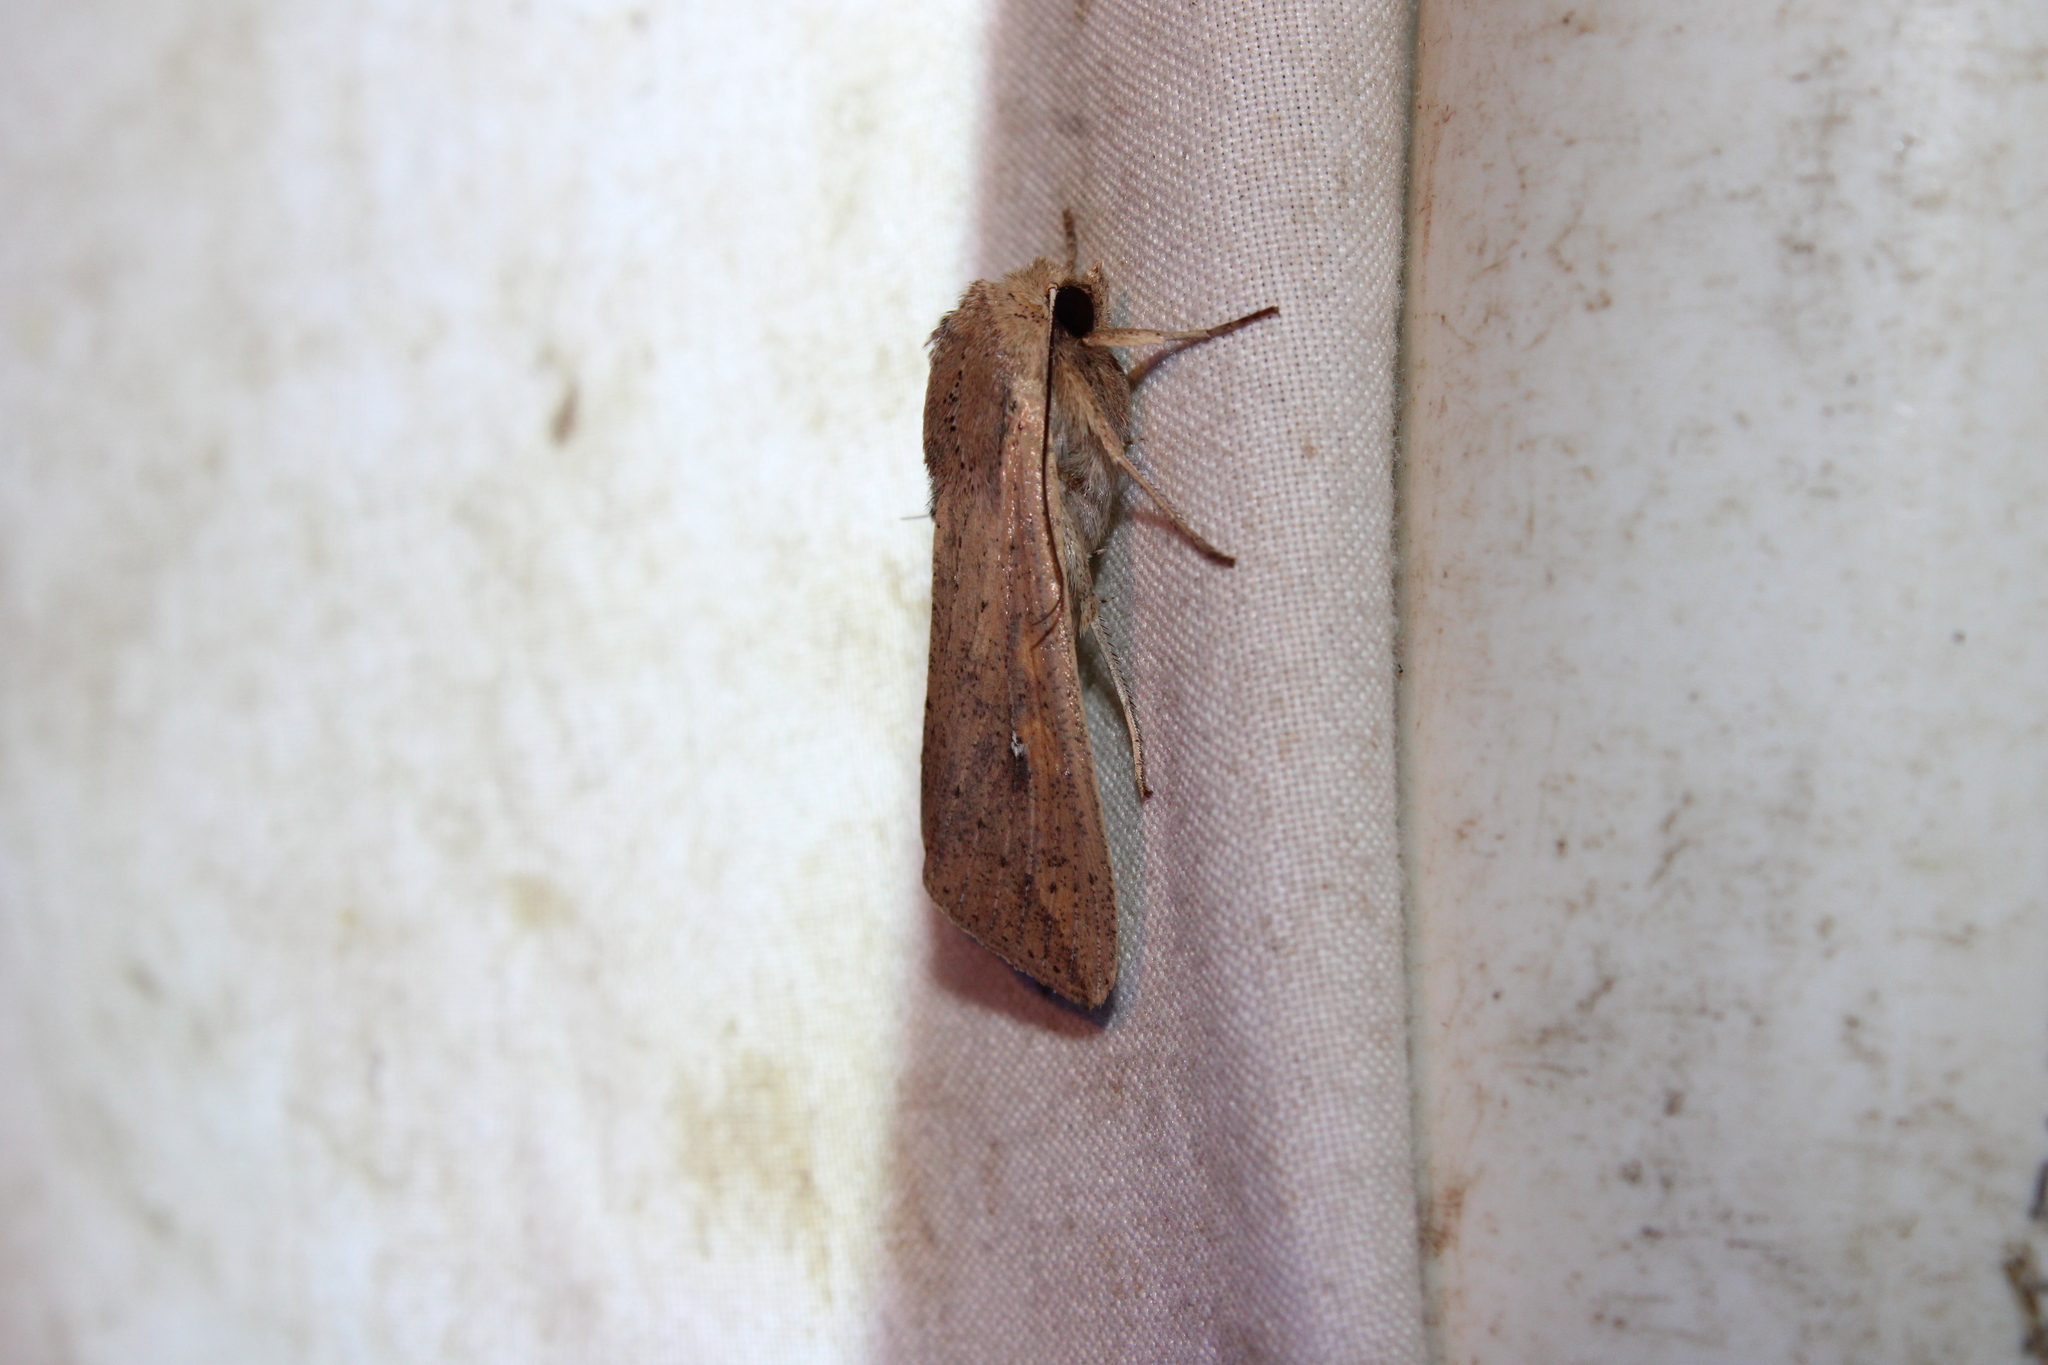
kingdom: Animalia
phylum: Arthropoda
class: Insecta
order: Lepidoptera
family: Noctuidae
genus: Mythimna
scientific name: Mythimna unipuncta
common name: White-speck
